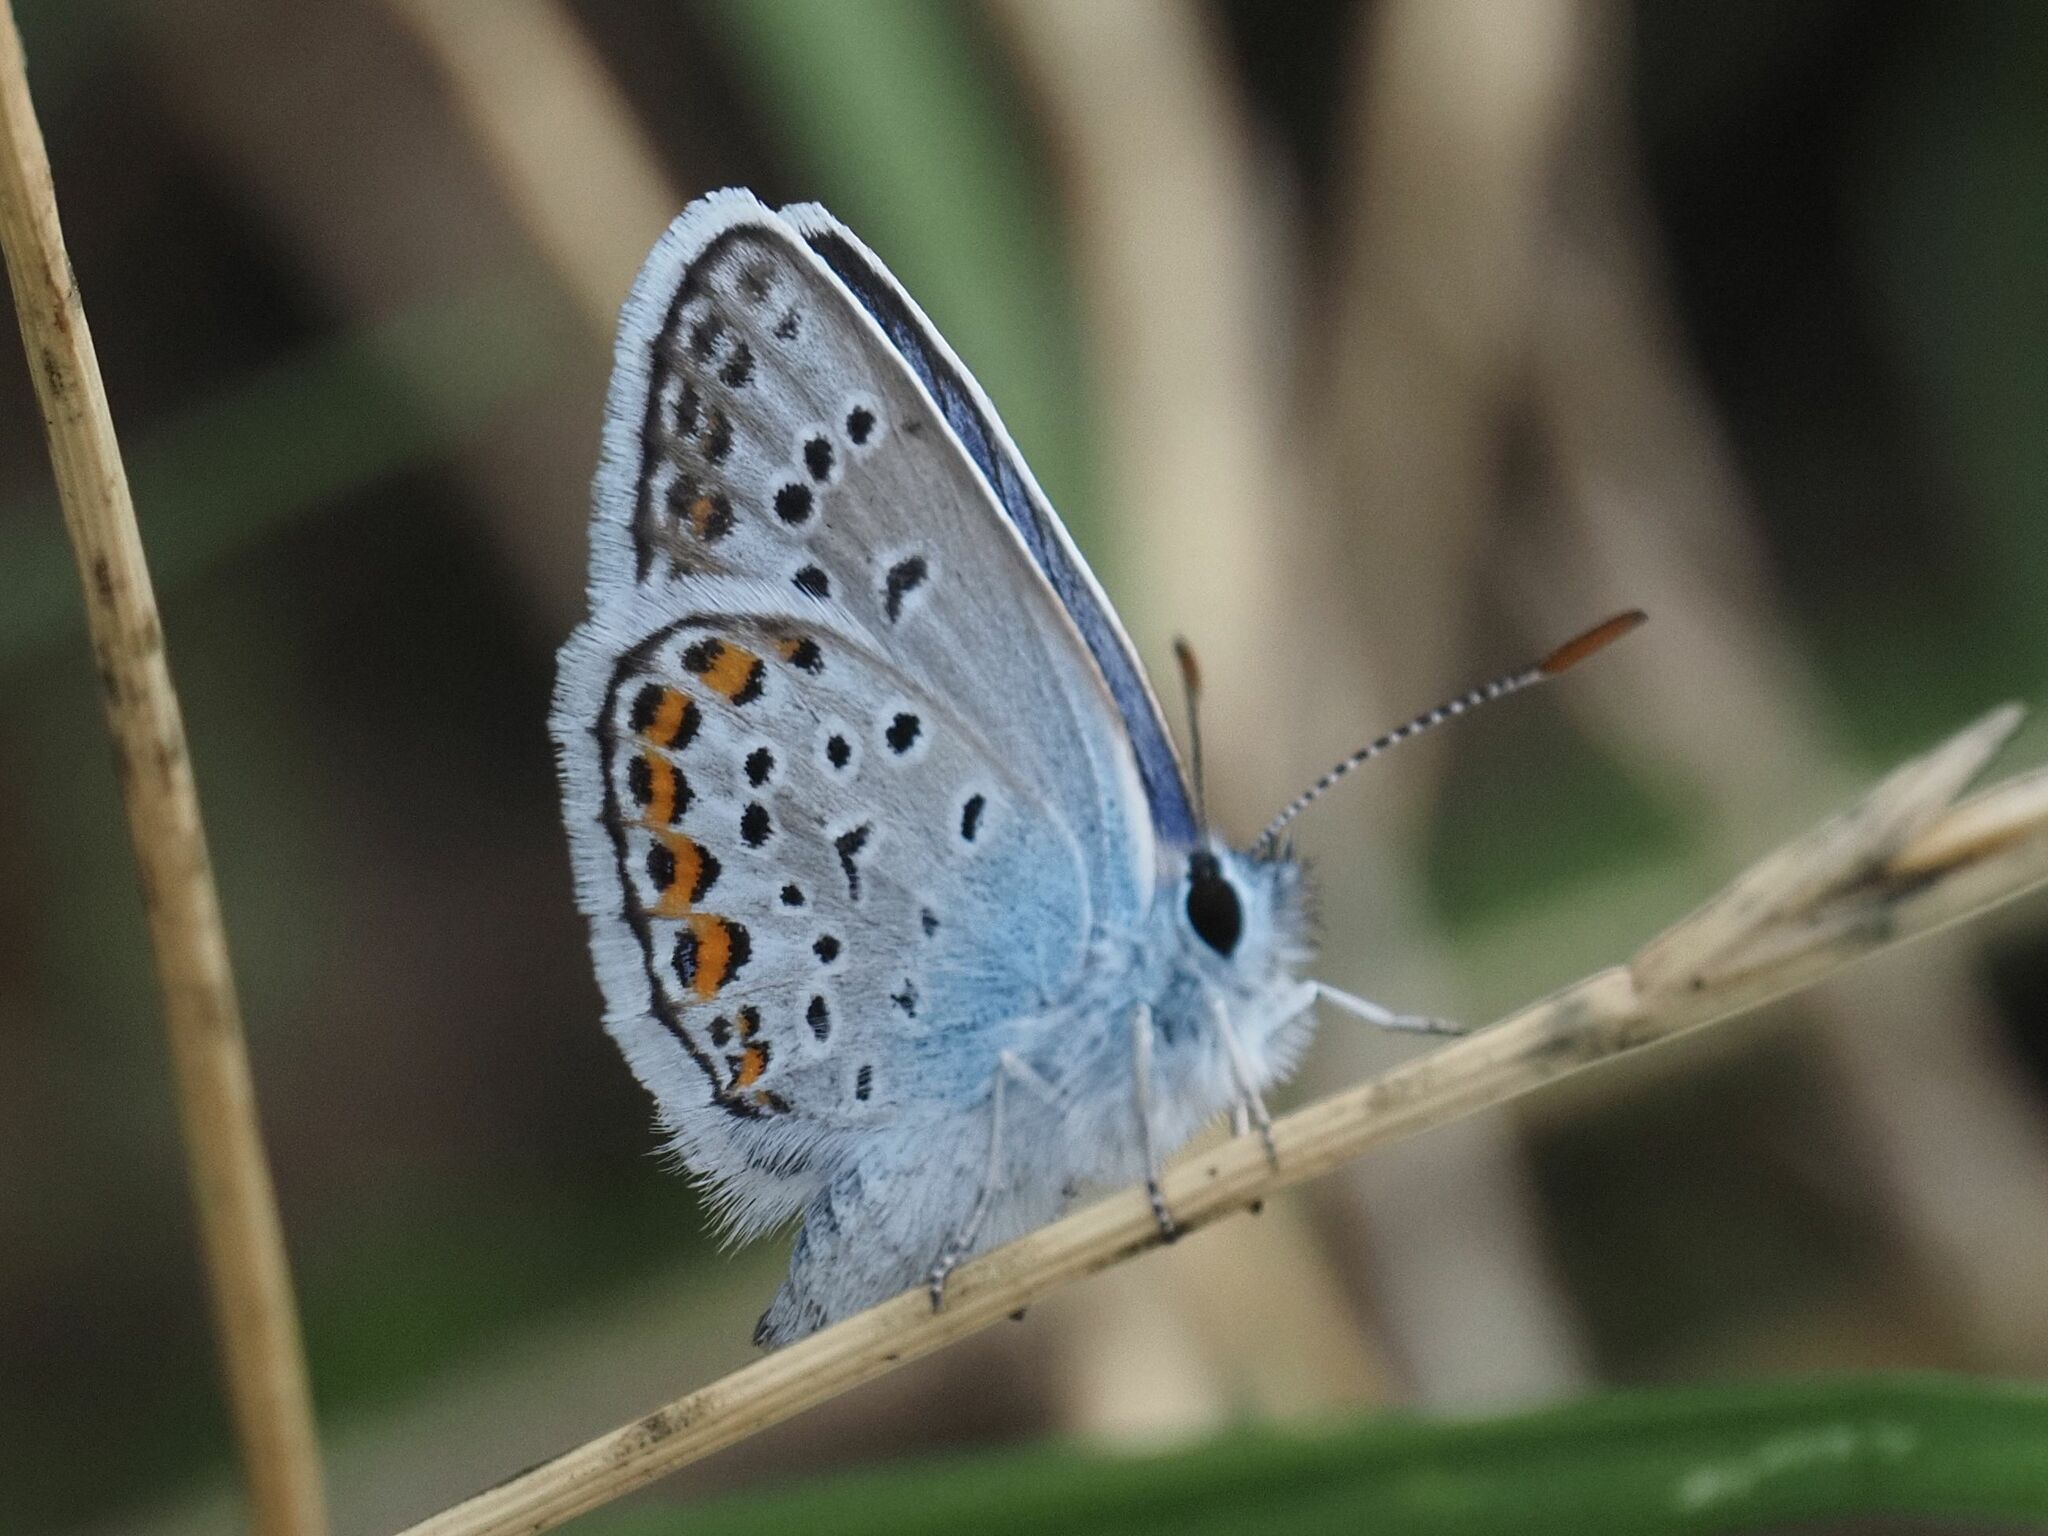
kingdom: Animalia
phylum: Arthropoda
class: Insecta
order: Lepidoptera
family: Lycaenidae
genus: Plebejus
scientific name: Plebejus argus
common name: Silver-studded blue
